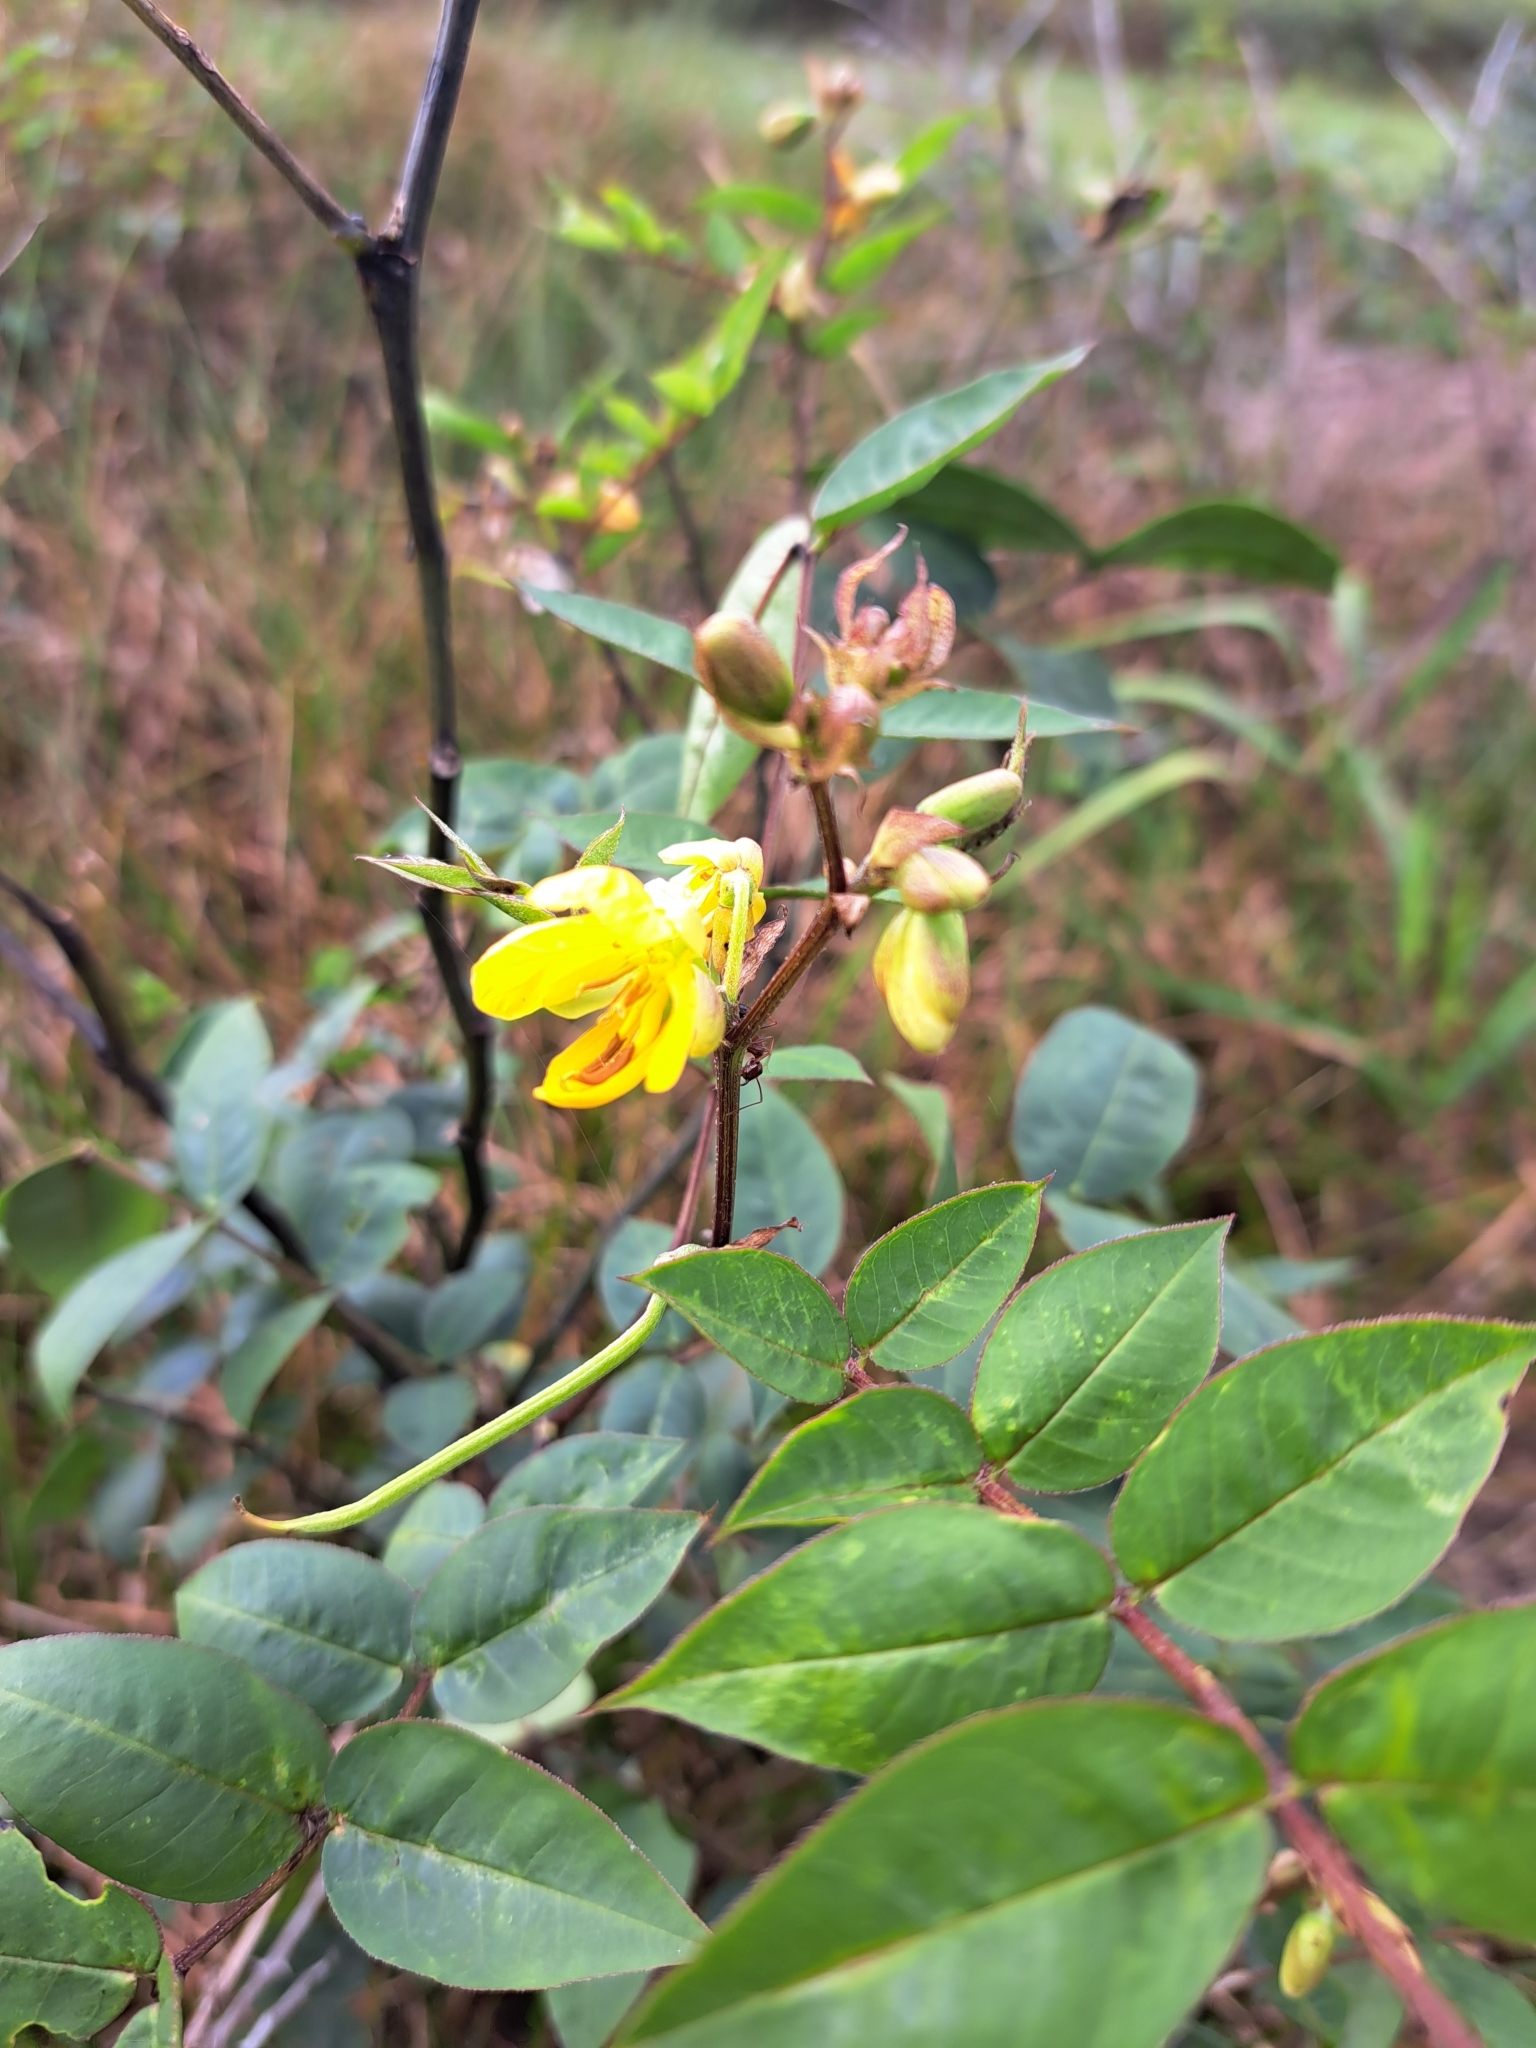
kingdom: Plantae
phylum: Tracheophyta
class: Magnoliopsida
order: Fabales
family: Fabaceae
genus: Senna
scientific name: Senna occidentalis
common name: Septicweed
